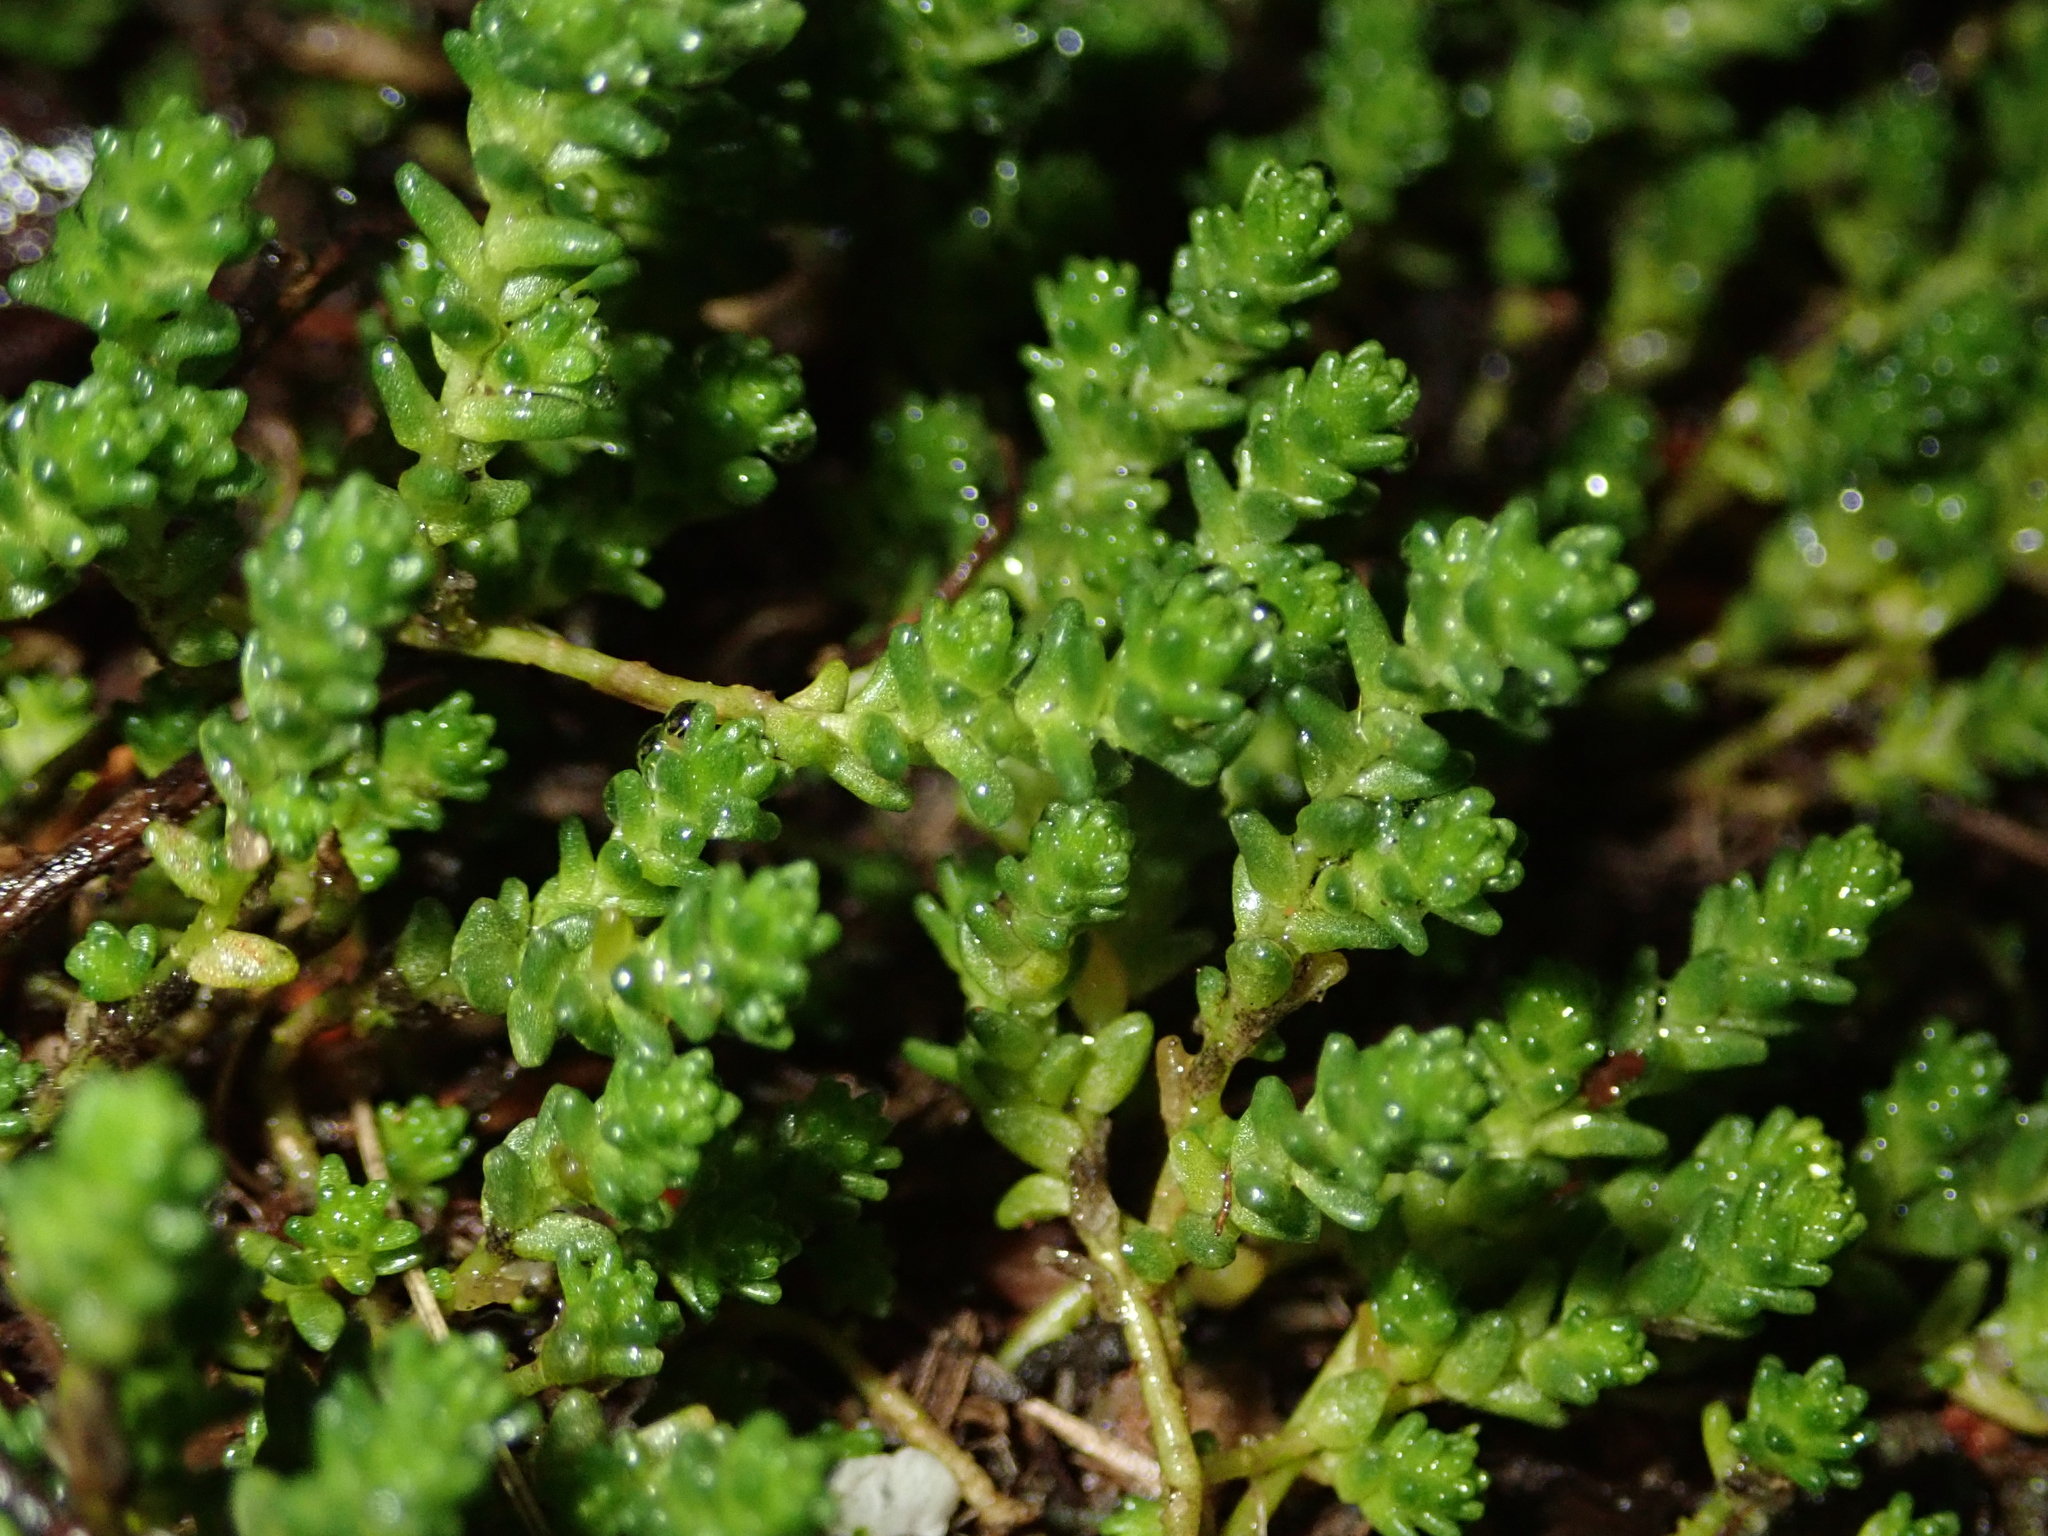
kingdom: Plantae
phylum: Tracheophyta
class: Magnoliopsida
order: Saxifragales
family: Crassulaceae
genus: Sedum
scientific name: Sedum acre
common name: Biting stonecrop
